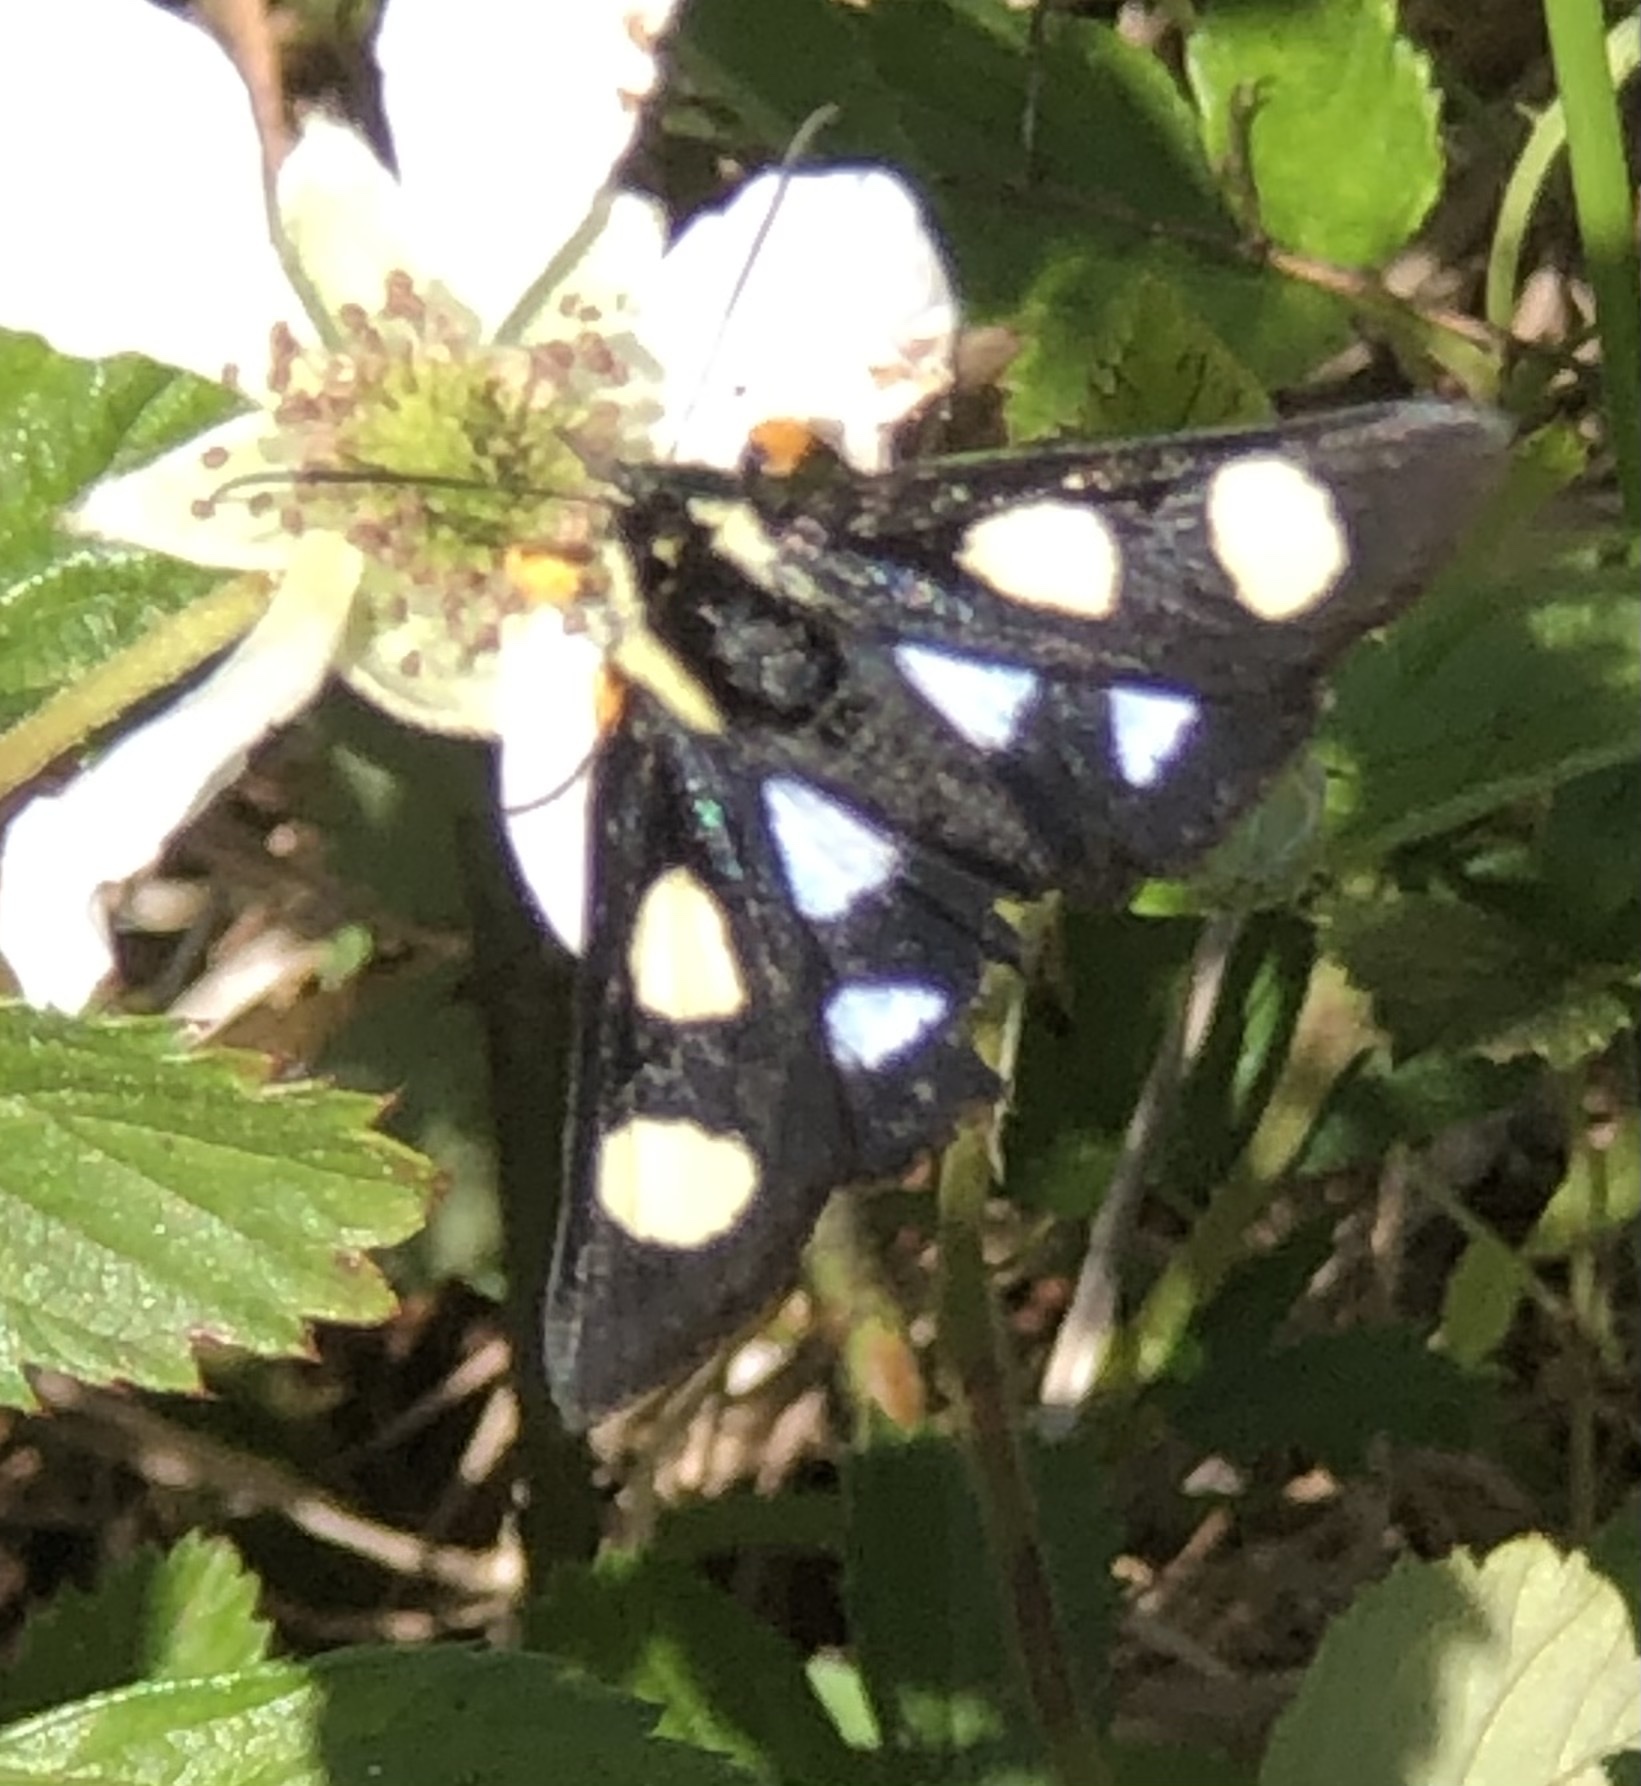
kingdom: Animalia
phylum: Arthropoda
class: Insecta
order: Lepidoptera
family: Noctuidae
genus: Alypia
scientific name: Alypia octomaculata
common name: Eight-spotted forester
